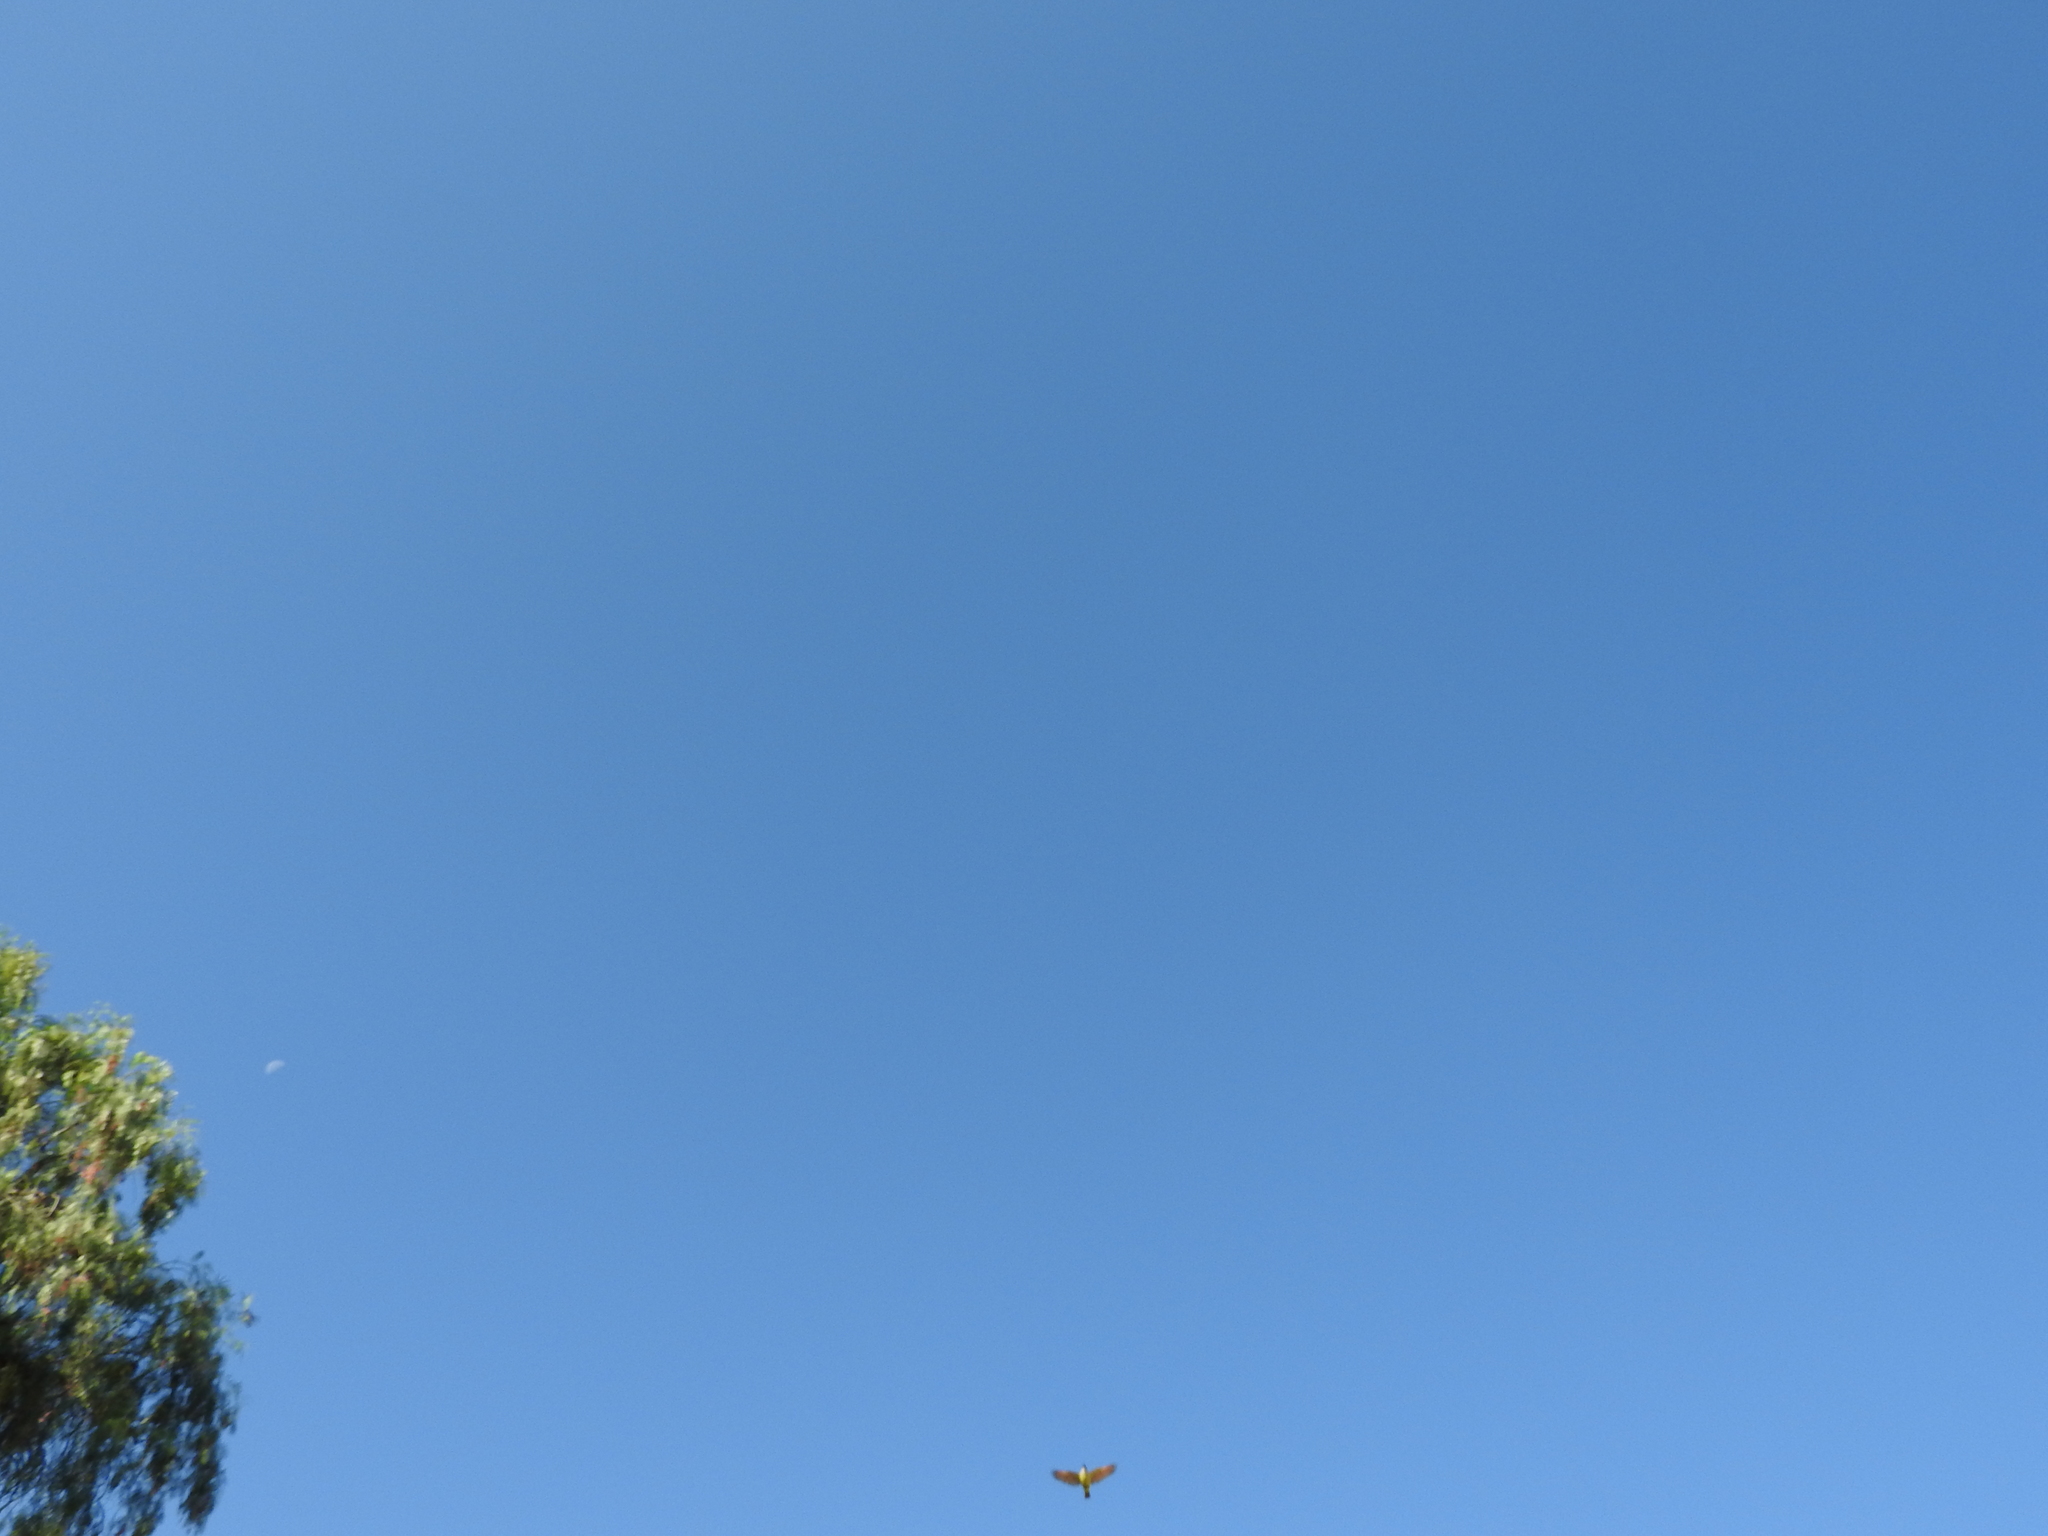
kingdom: Animalia
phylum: Chordata
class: Aves
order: Passeriformes
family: Tyrannidae
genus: Pitangus
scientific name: Pitangus sulphuratus
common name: Great kiskadee
